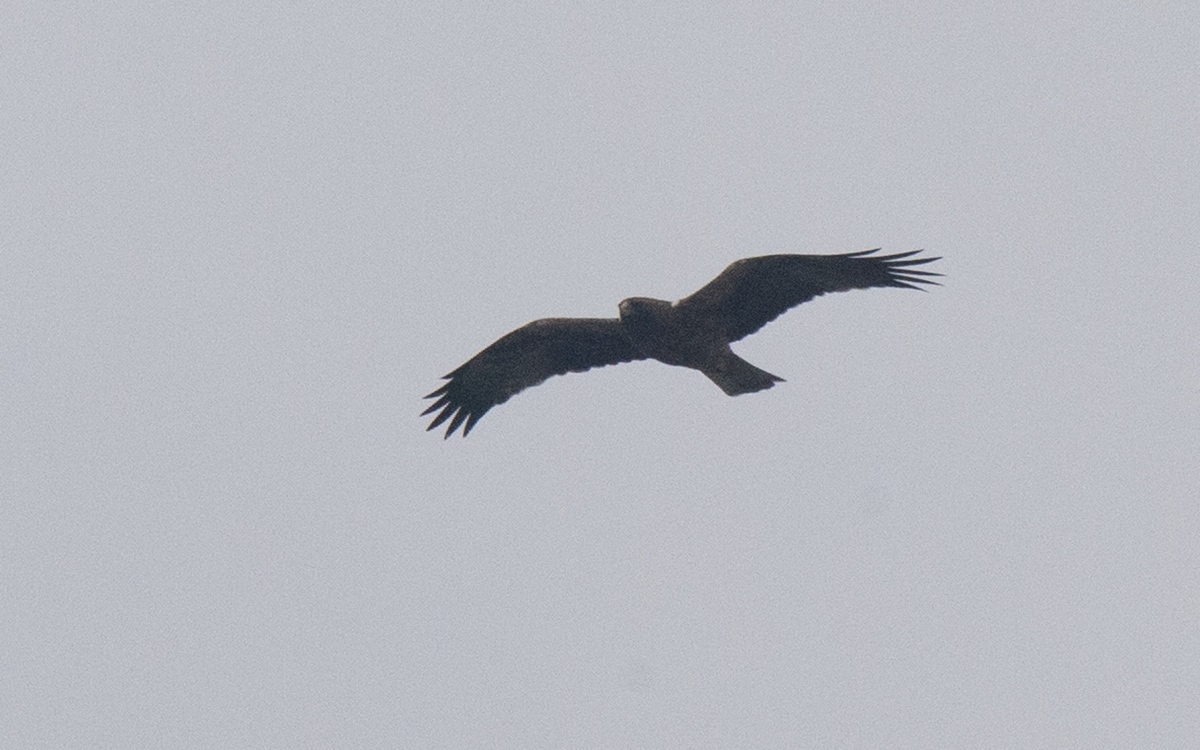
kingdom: Animalia
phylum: Chordata
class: Aves
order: Accipitriformes
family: Accipitridae
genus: Hieraaetus
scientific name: Hieraaetus pennatus
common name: Booted eagle
